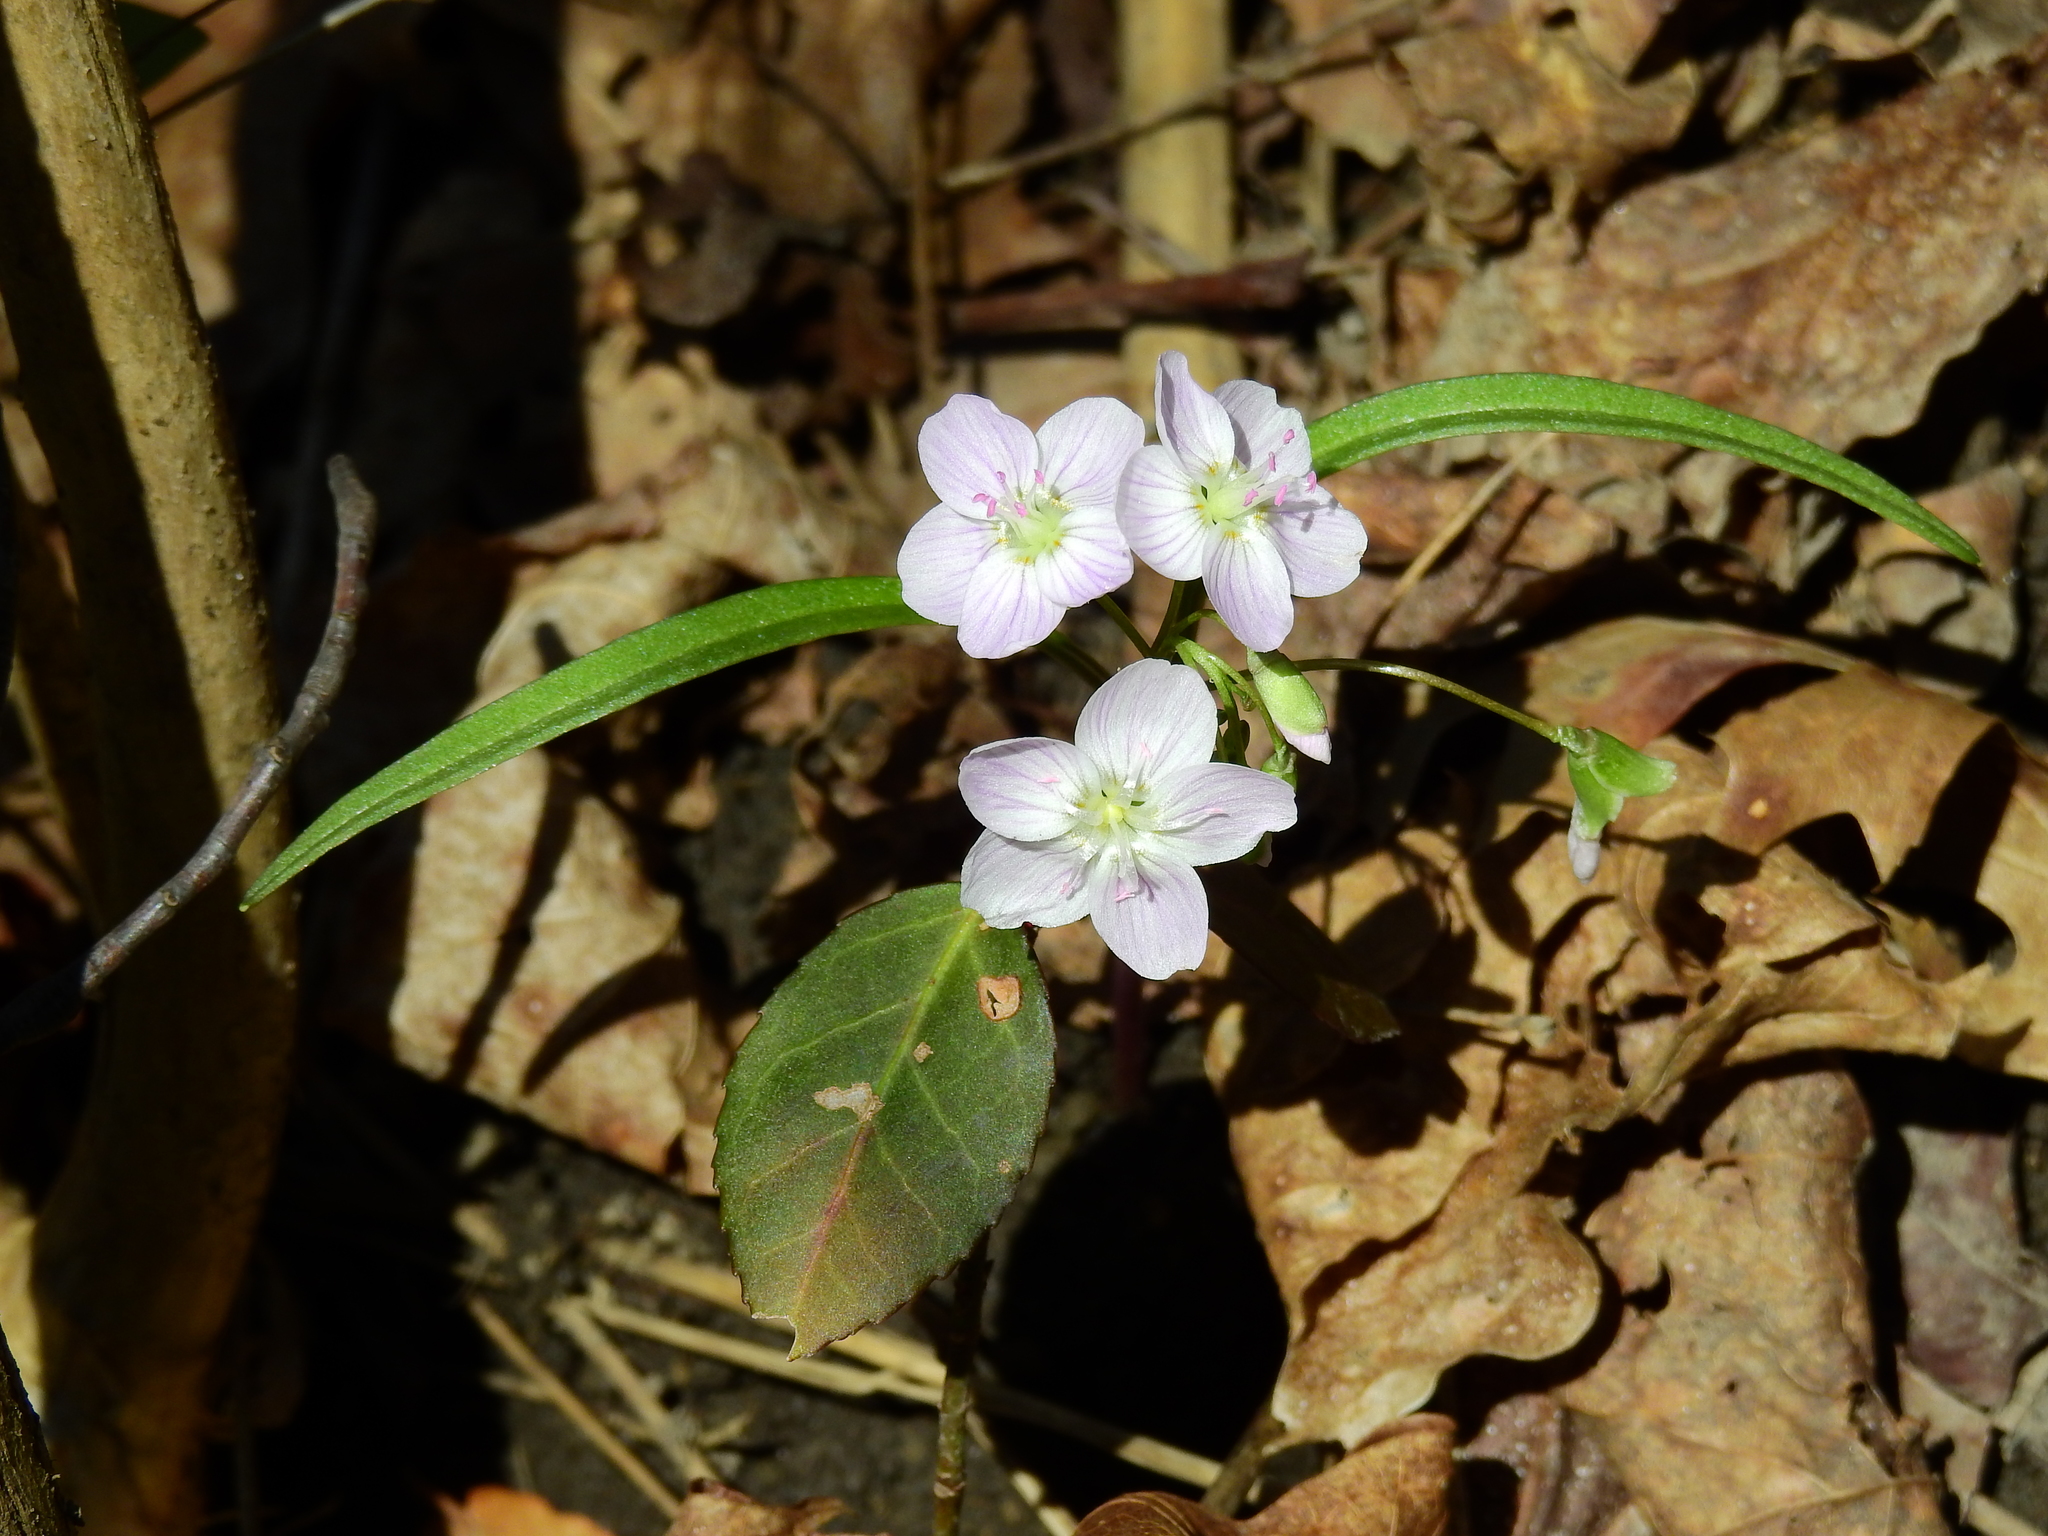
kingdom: Plantae
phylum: Tracheophyta
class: Magnoliopsida
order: Caryophyllales
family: Montiaceae
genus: Claytonia
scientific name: Claytonia virginica
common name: Virginia springbeauty
